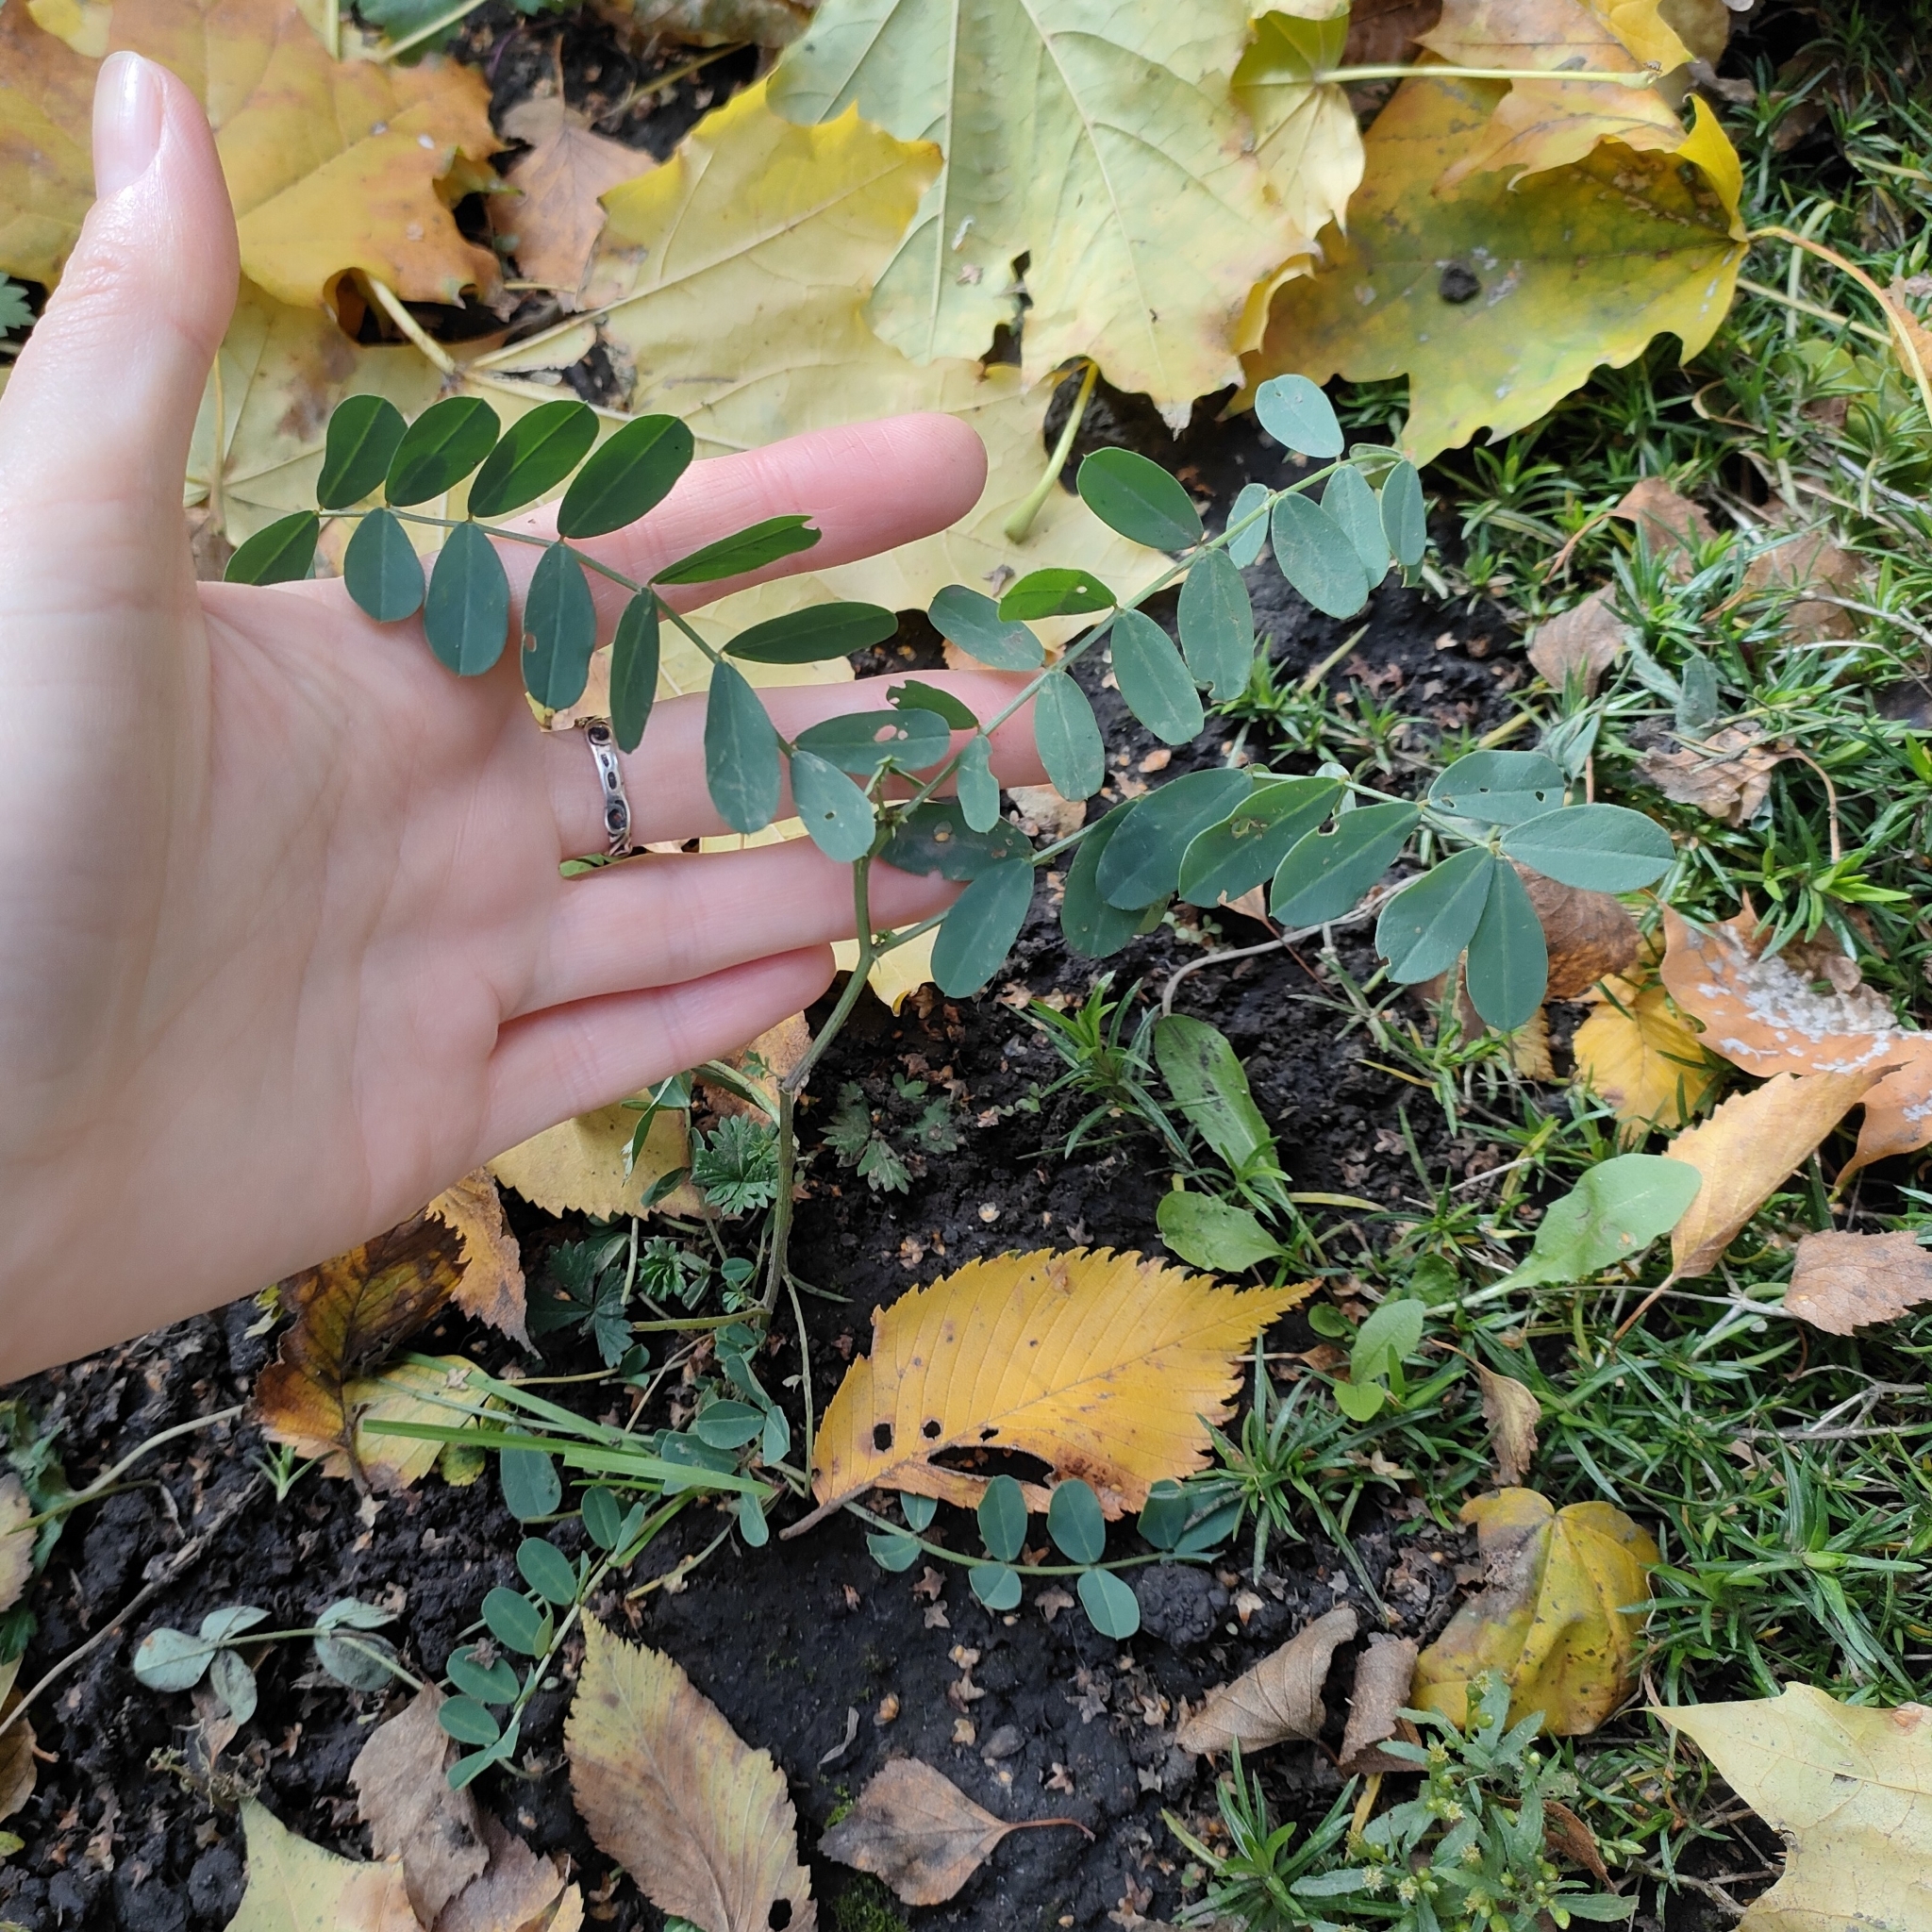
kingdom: Plantae
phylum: Tracheophyta
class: Magnoliopsida
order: Fabales
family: Fabaceae
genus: Coronilla
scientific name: Coronilla varia
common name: Crownvetch
